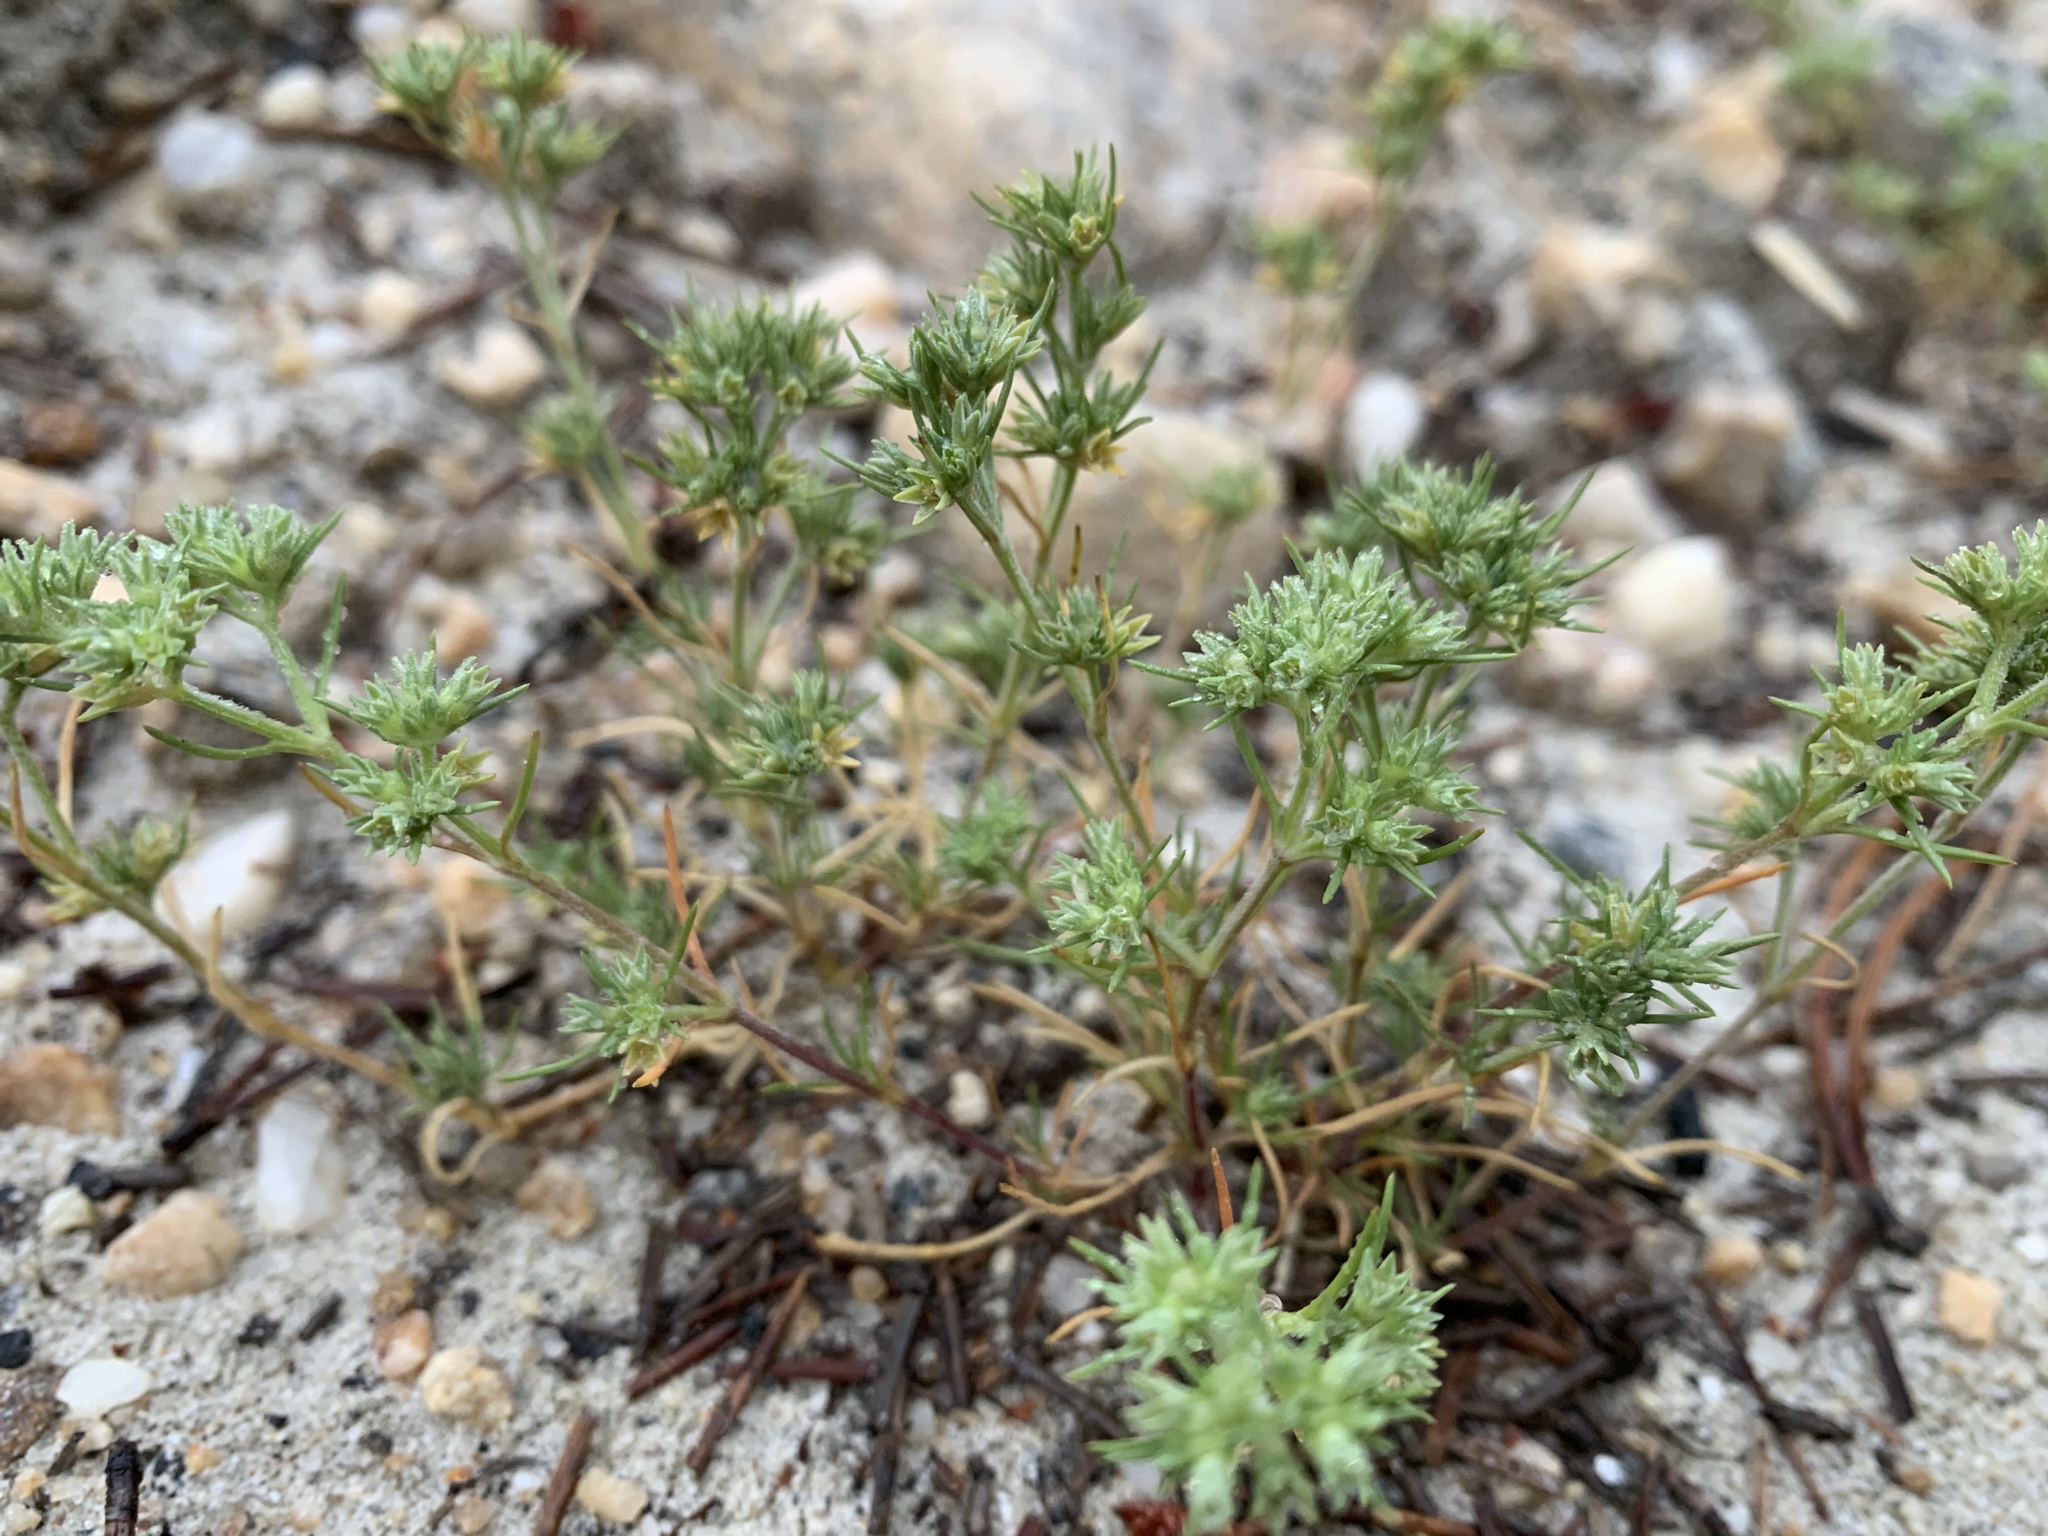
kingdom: Plantae
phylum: Tracheophyta
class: Magnoliopsida
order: Caryophyllales
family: Caryophyllaceae
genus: Scleranthus
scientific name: Scleranthus annuus
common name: Annual knawel
